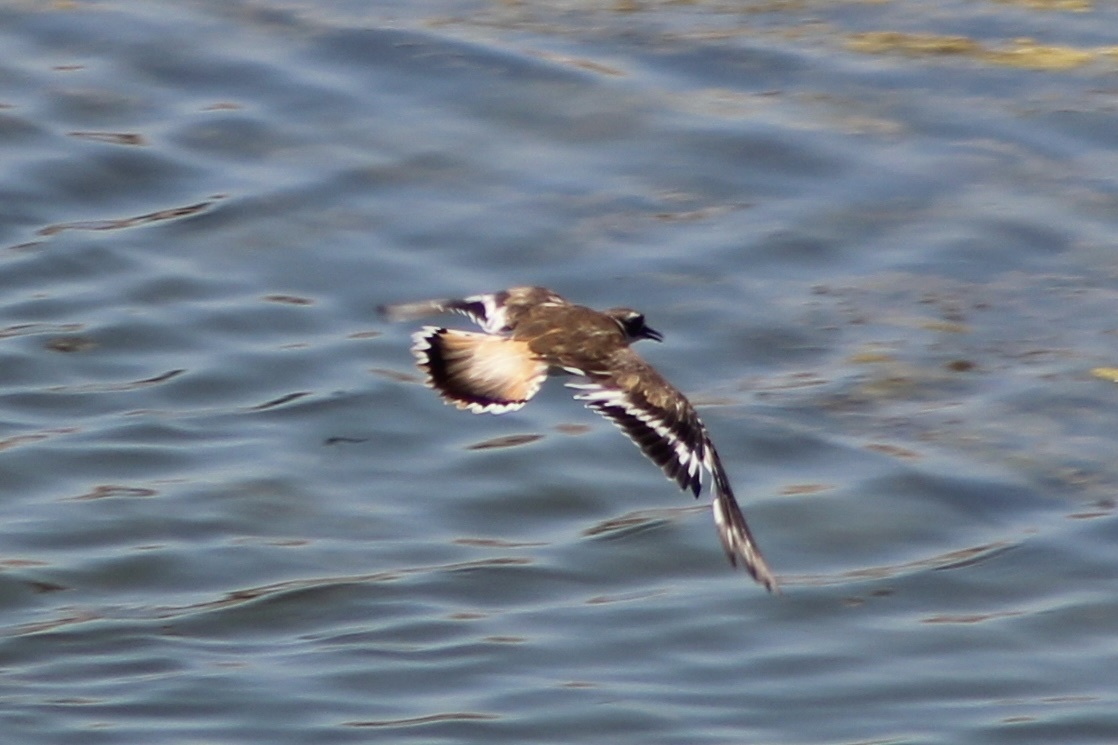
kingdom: Animalia
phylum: Chordata
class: Aves
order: Charadriiformes
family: Charadriidae
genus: Charadrius
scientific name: Charadrius vociferus
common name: Killdeer
